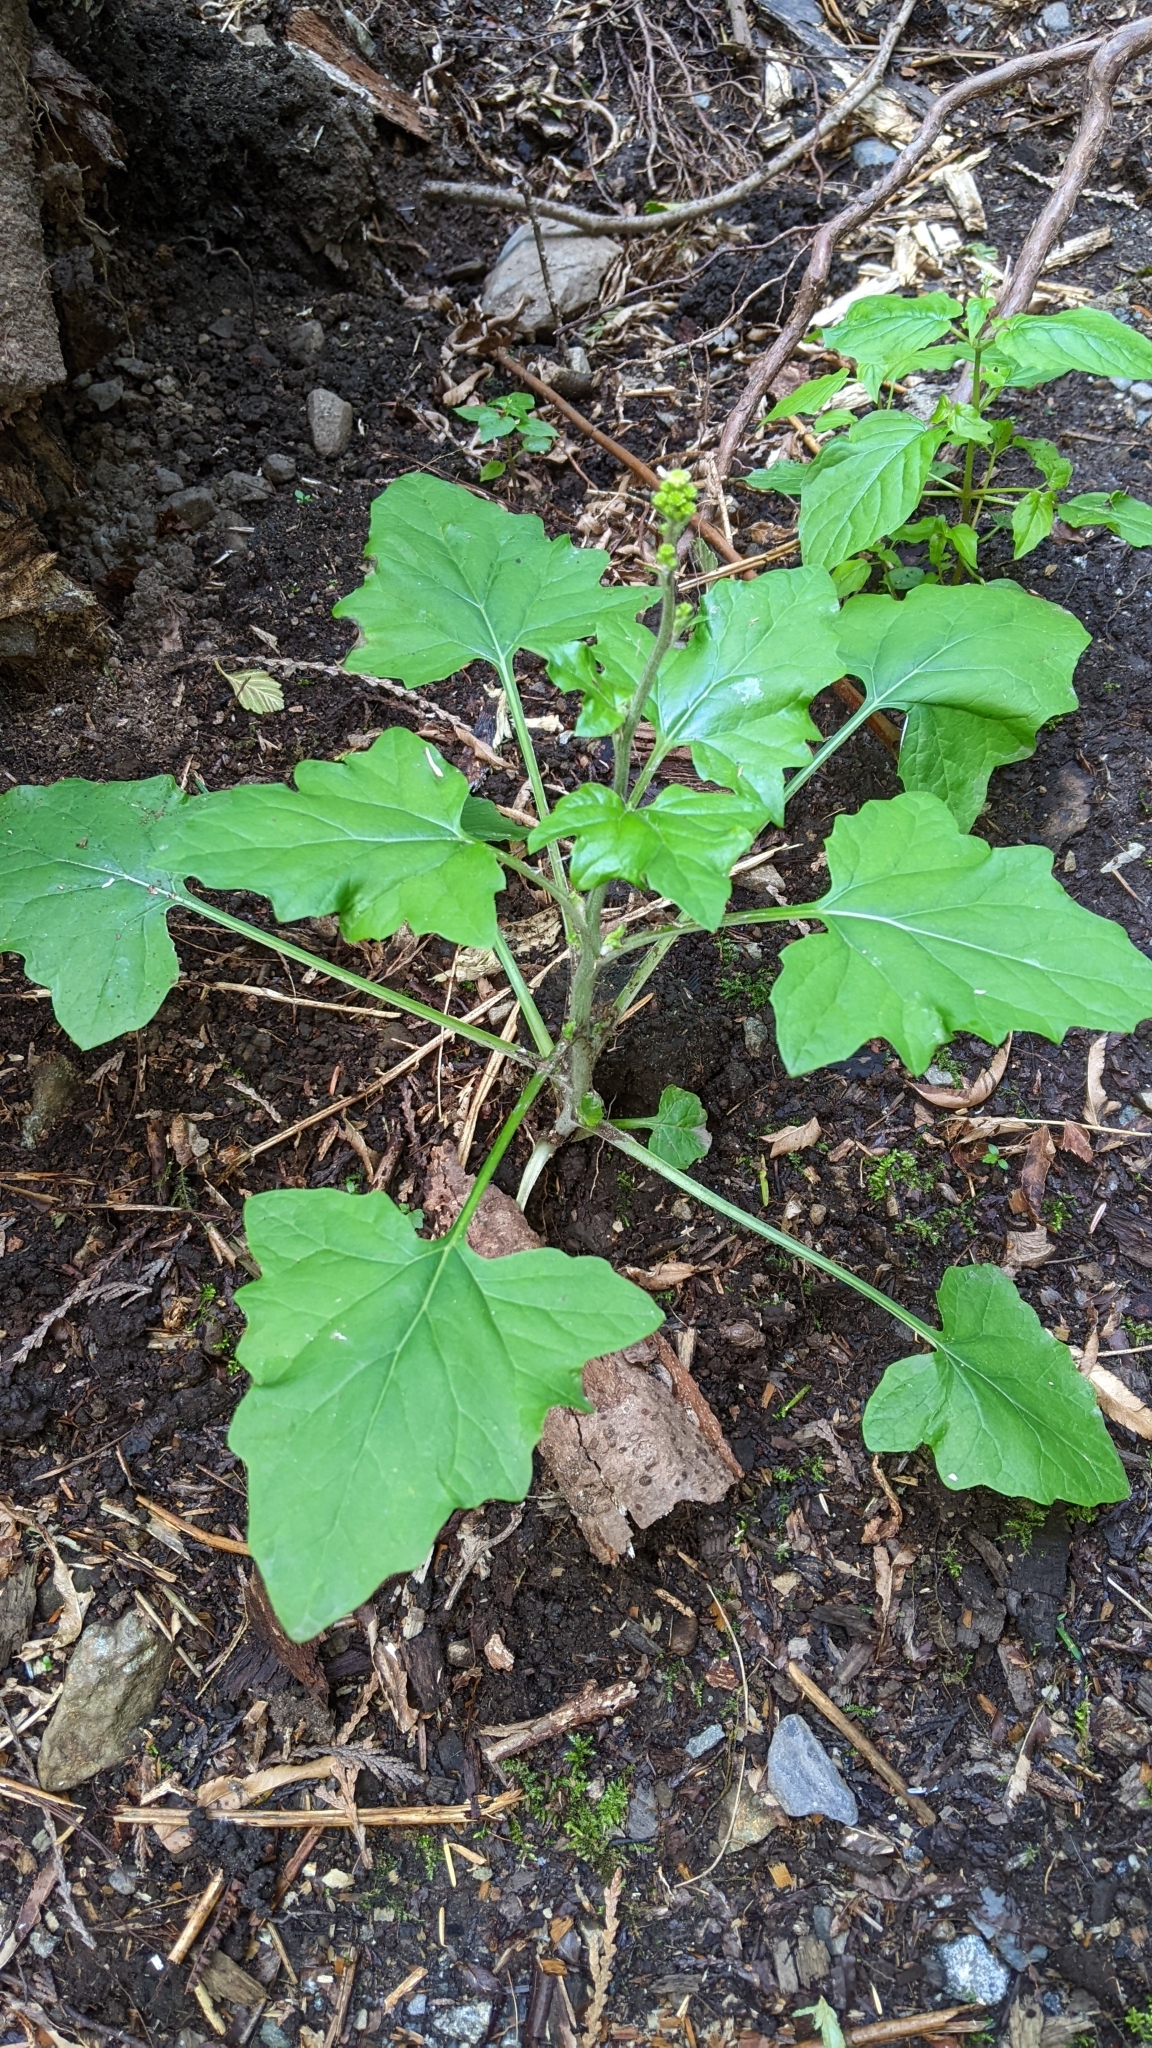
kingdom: Plantae
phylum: Tracheophyta
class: Magnoliopsida
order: Asterales
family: Asteraceae
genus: Adenocaulon
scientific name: Adenocaulon bicolor
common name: Trailplant
